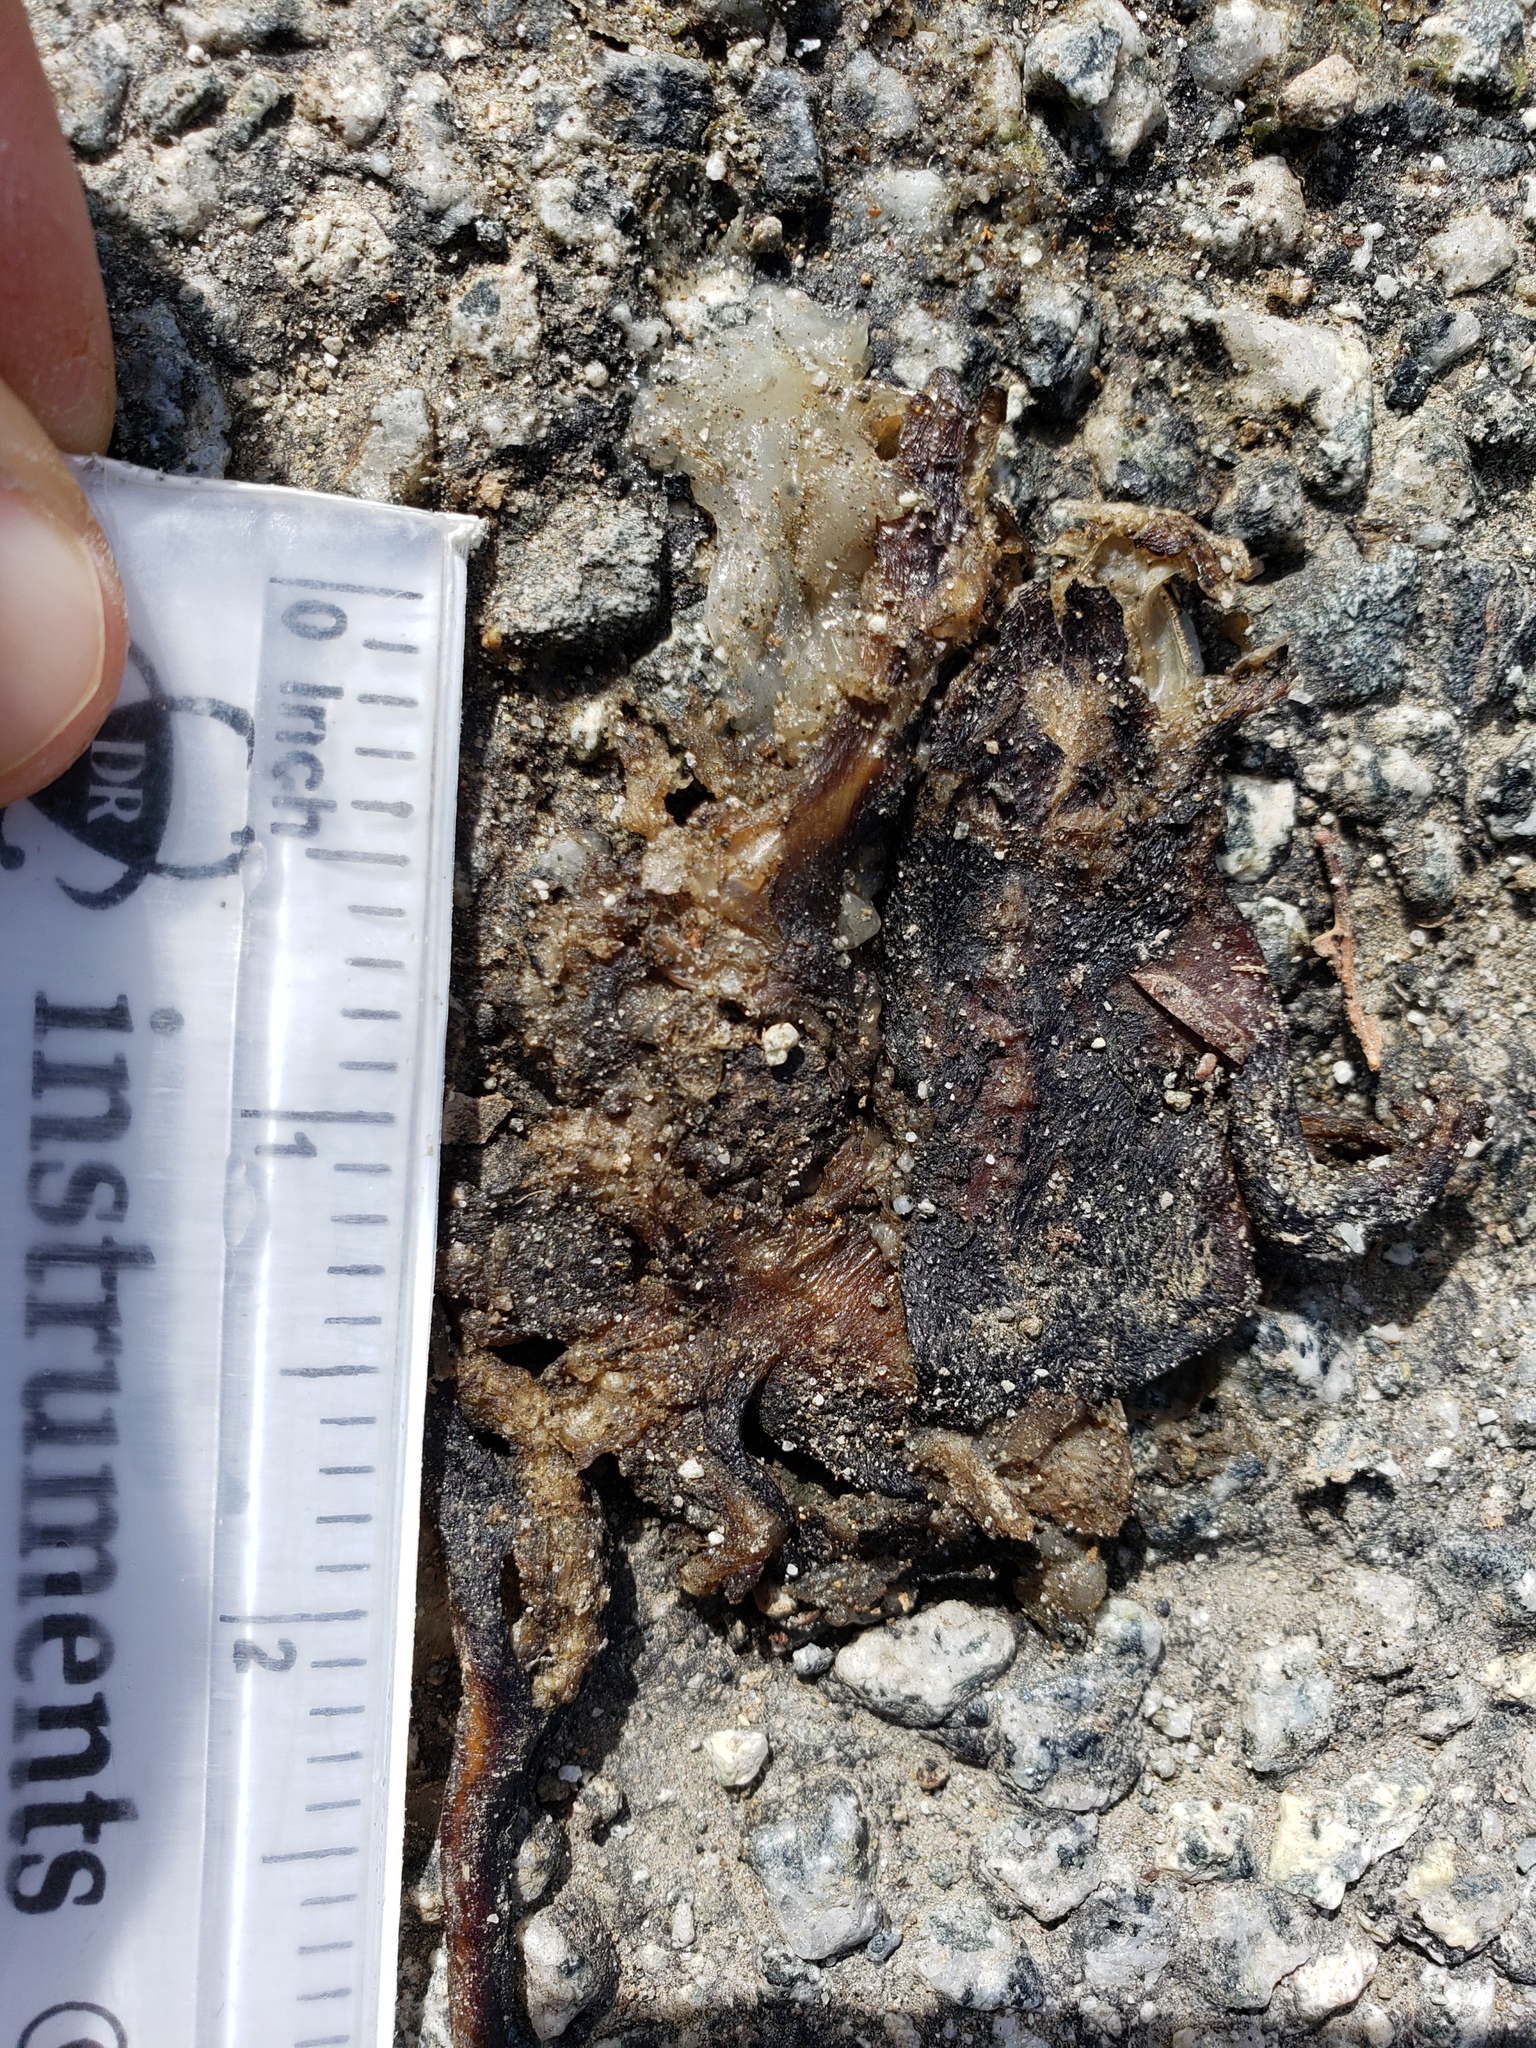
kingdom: Animalia
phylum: Chordata
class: Amphibia
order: Caudata
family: Salamandridae
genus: Taricha
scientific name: Taricha
